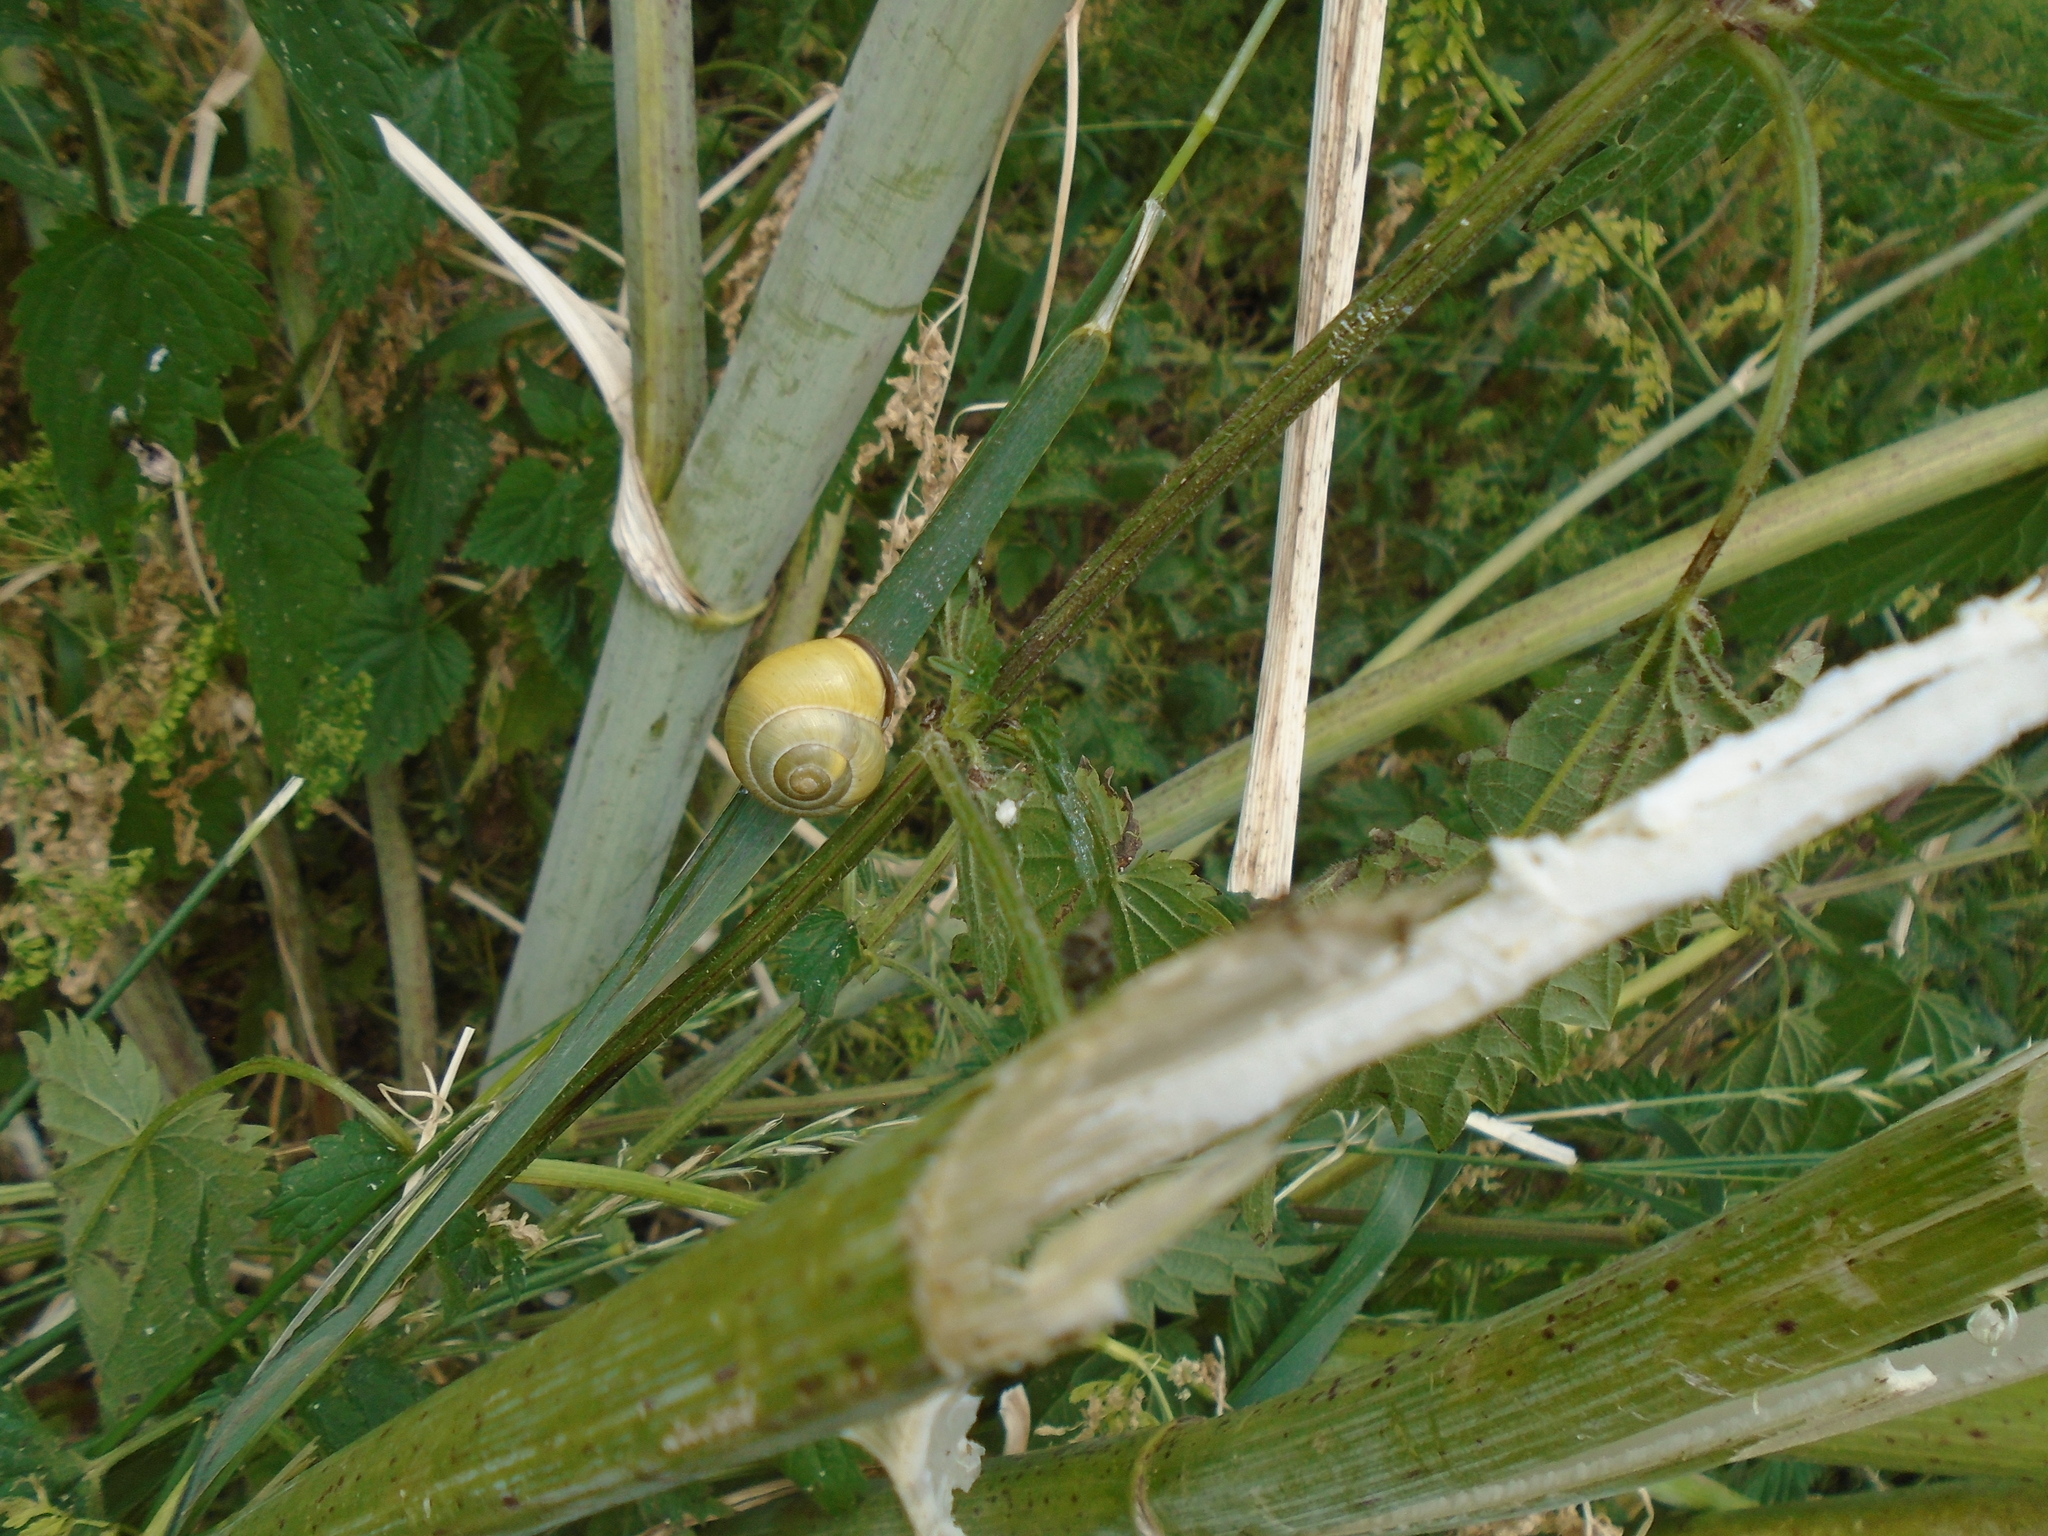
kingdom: Animalia
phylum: Mollusca
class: Gastropoda
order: Stylommatophora
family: Helicidae
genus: Cepaea
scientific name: Cepaea nemoralis
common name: Grovesnail
